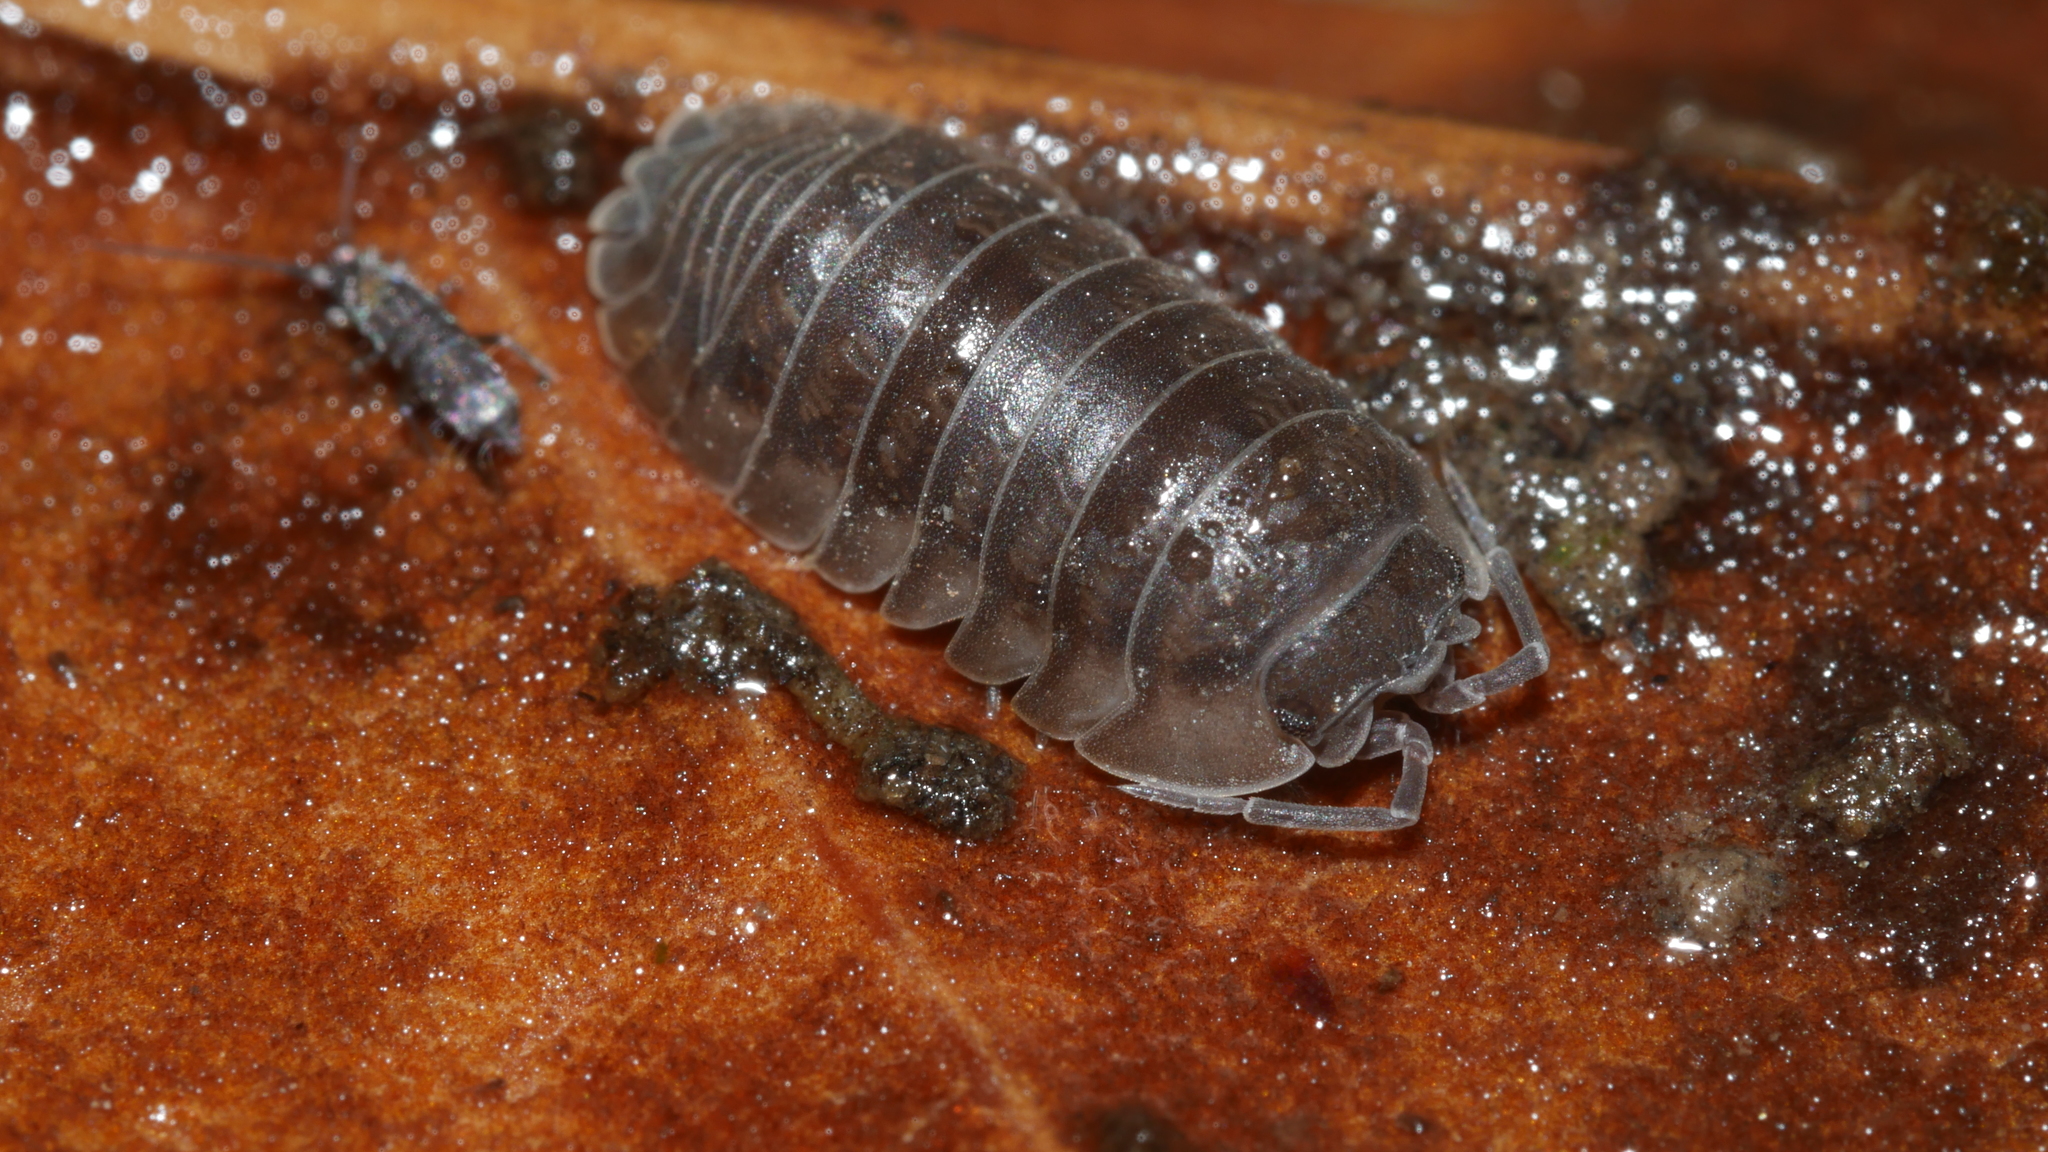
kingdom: Animalia
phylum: Arthropoda
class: Malacostraca
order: Isopoda
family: Armadillidiidae
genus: Armadillidium
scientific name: Armadillidium nasatum
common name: Isopod
